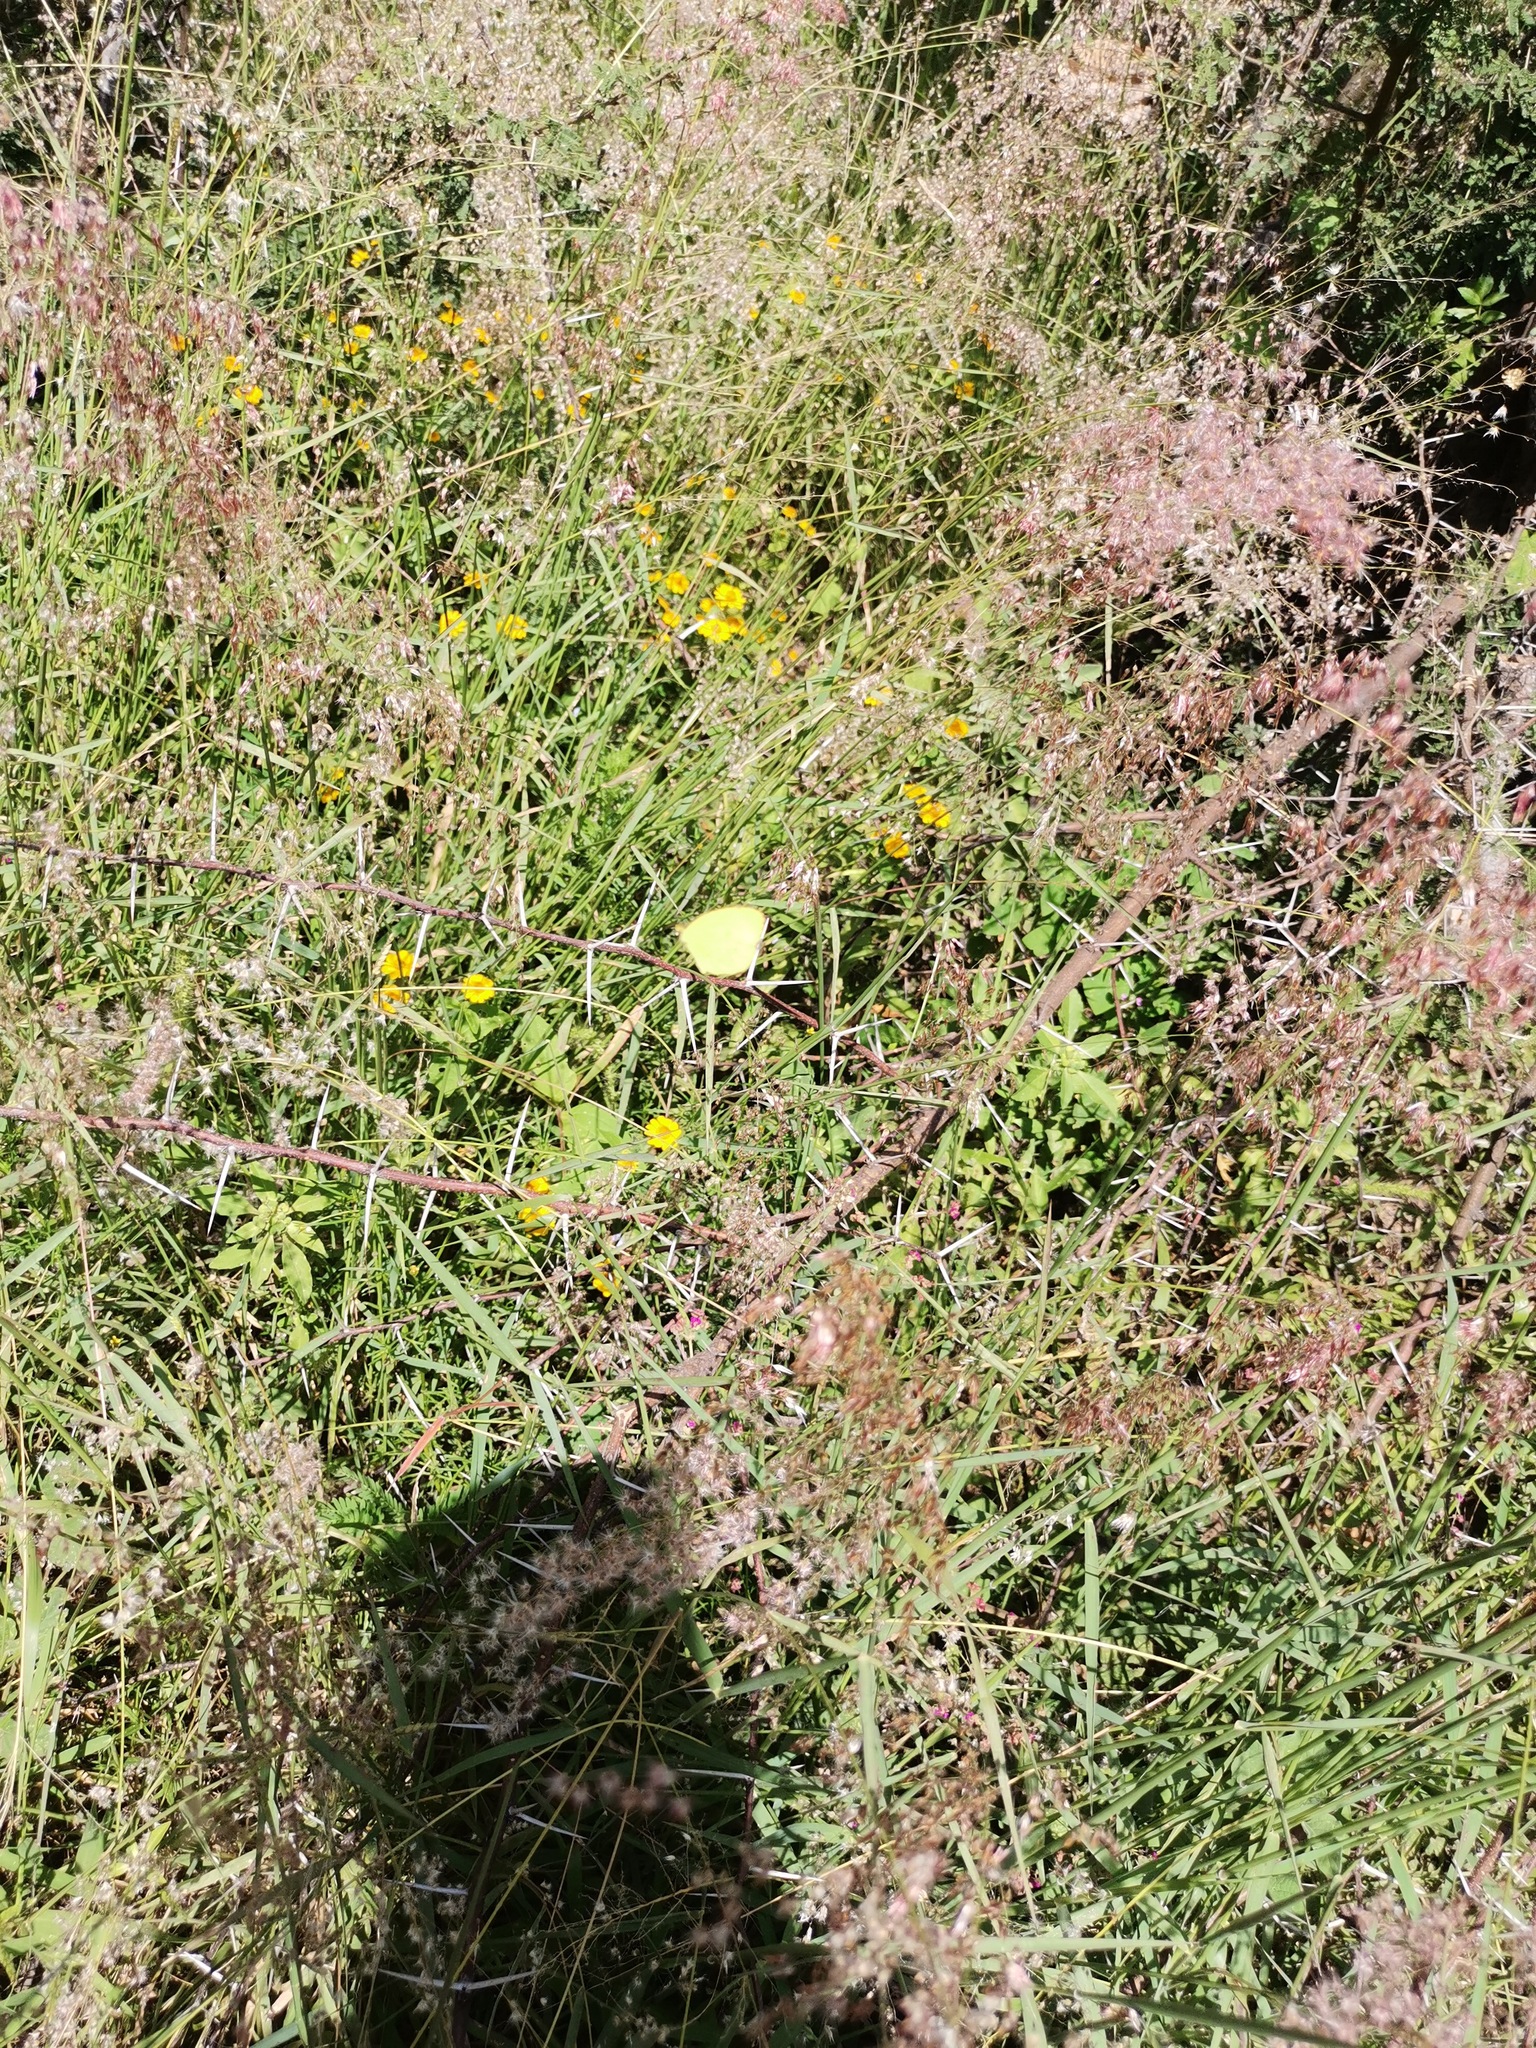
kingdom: Plantae
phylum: Tracheophyta
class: Liliopsida
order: Poales
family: Poaceae
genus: Melinis
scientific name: Melinis repens
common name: Rose natal grass
